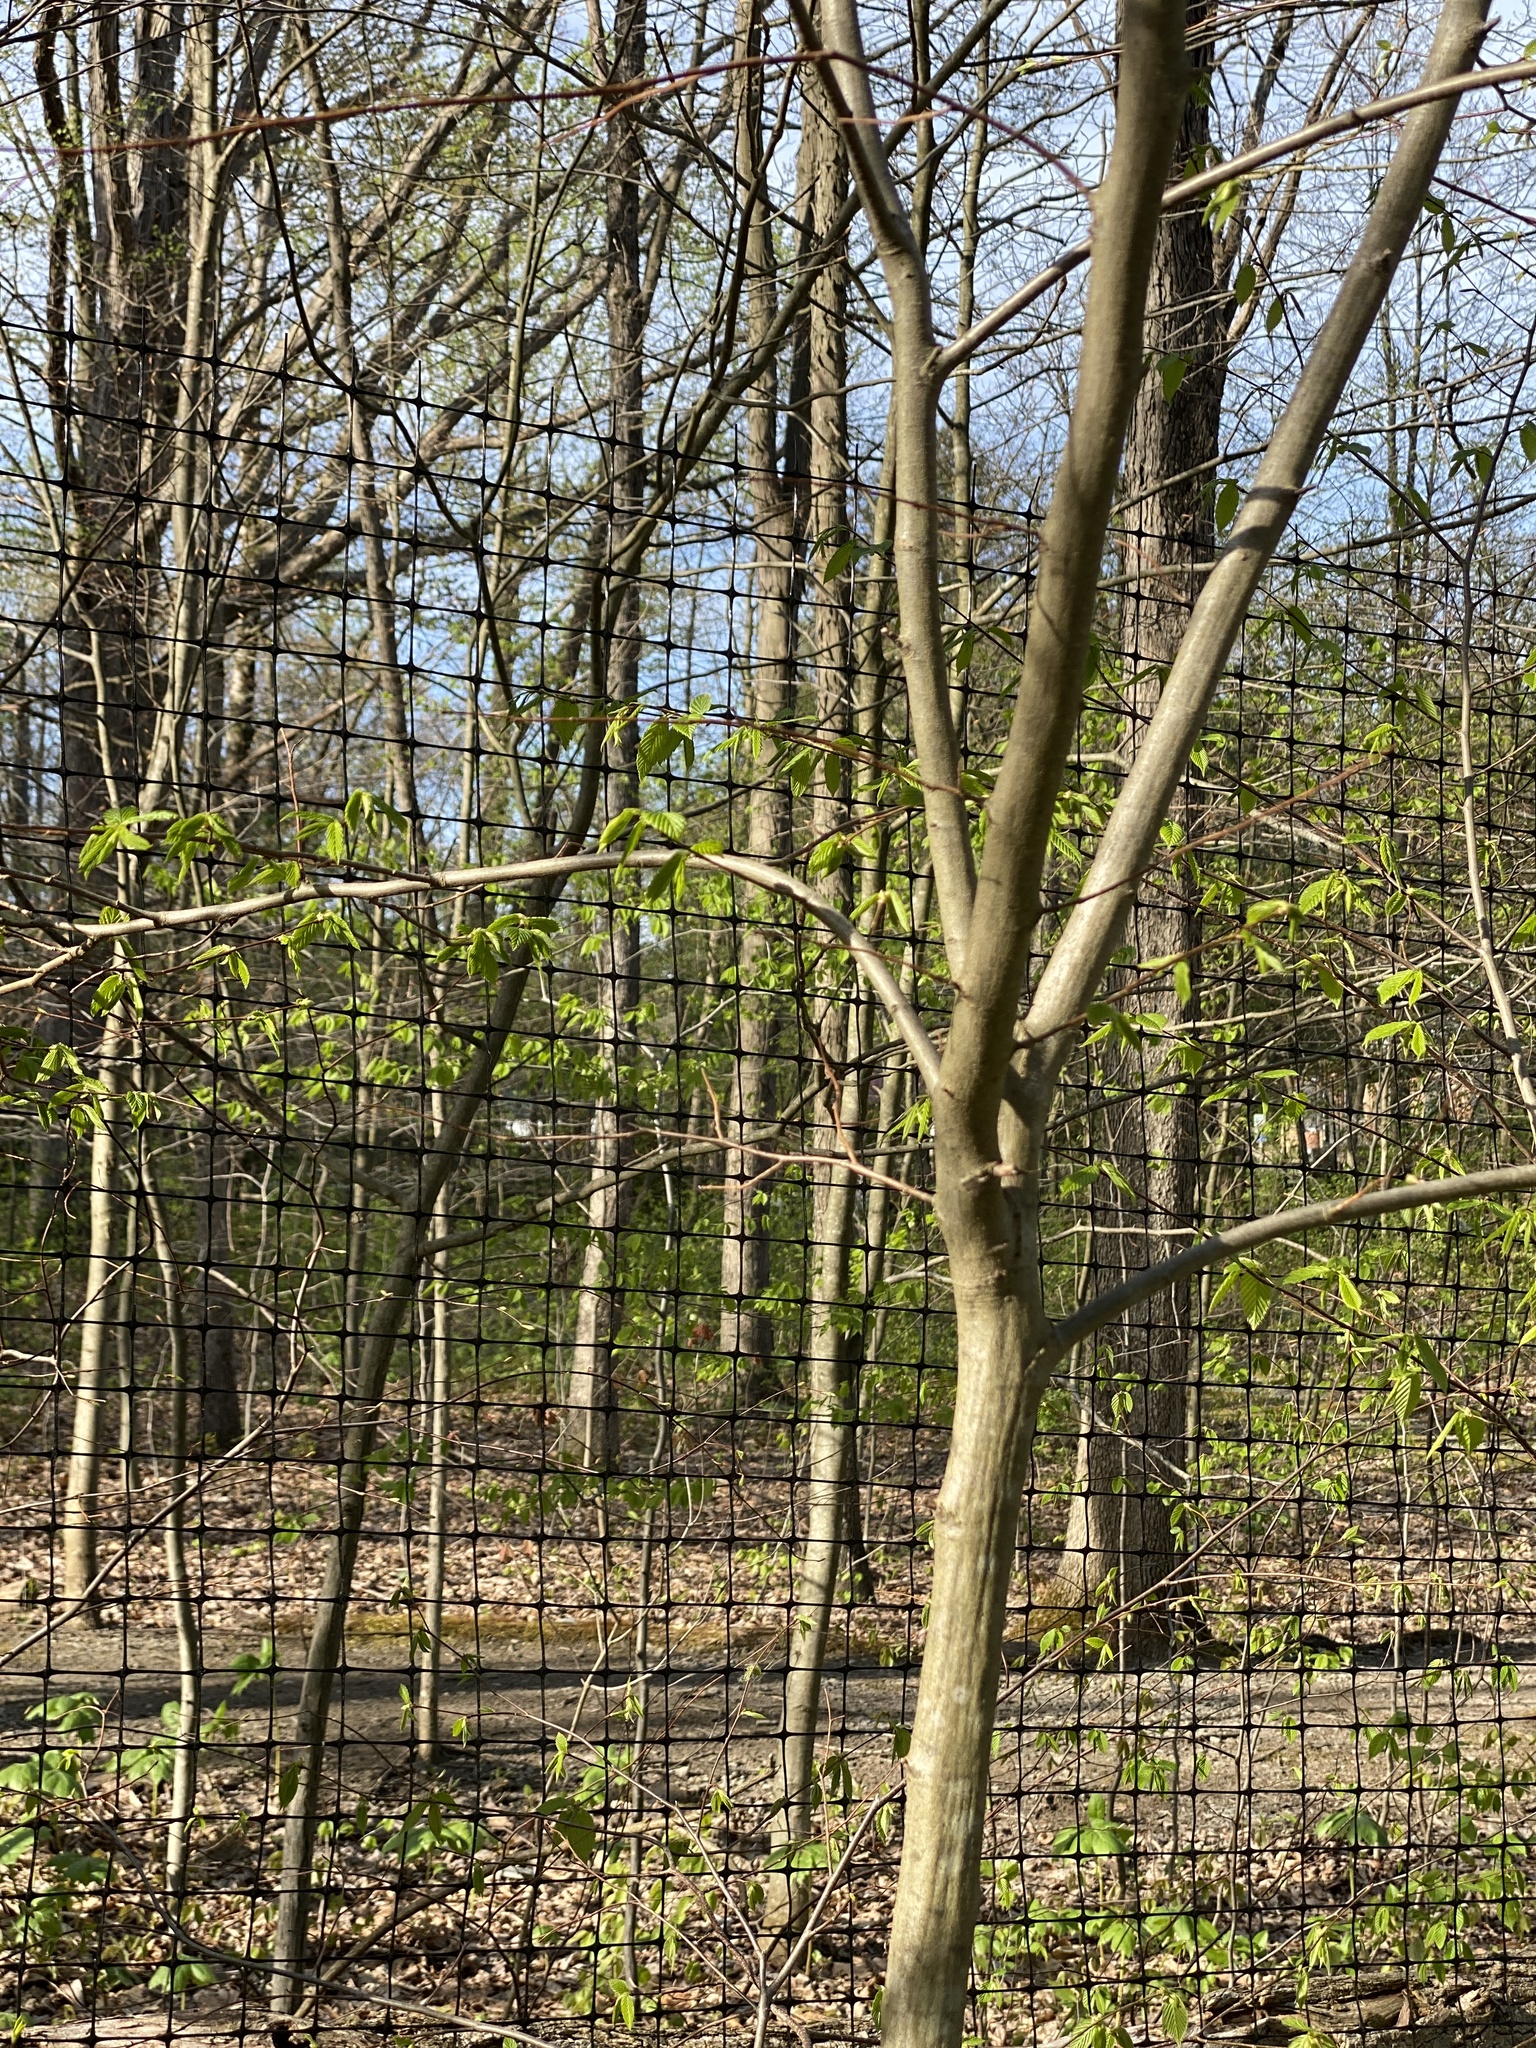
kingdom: Plantae
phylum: Tracheophyta
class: Magnoliopsida
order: Fagales
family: Betulaceae
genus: Carpinus
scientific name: Carpinus caroliniana
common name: American hornbeam
